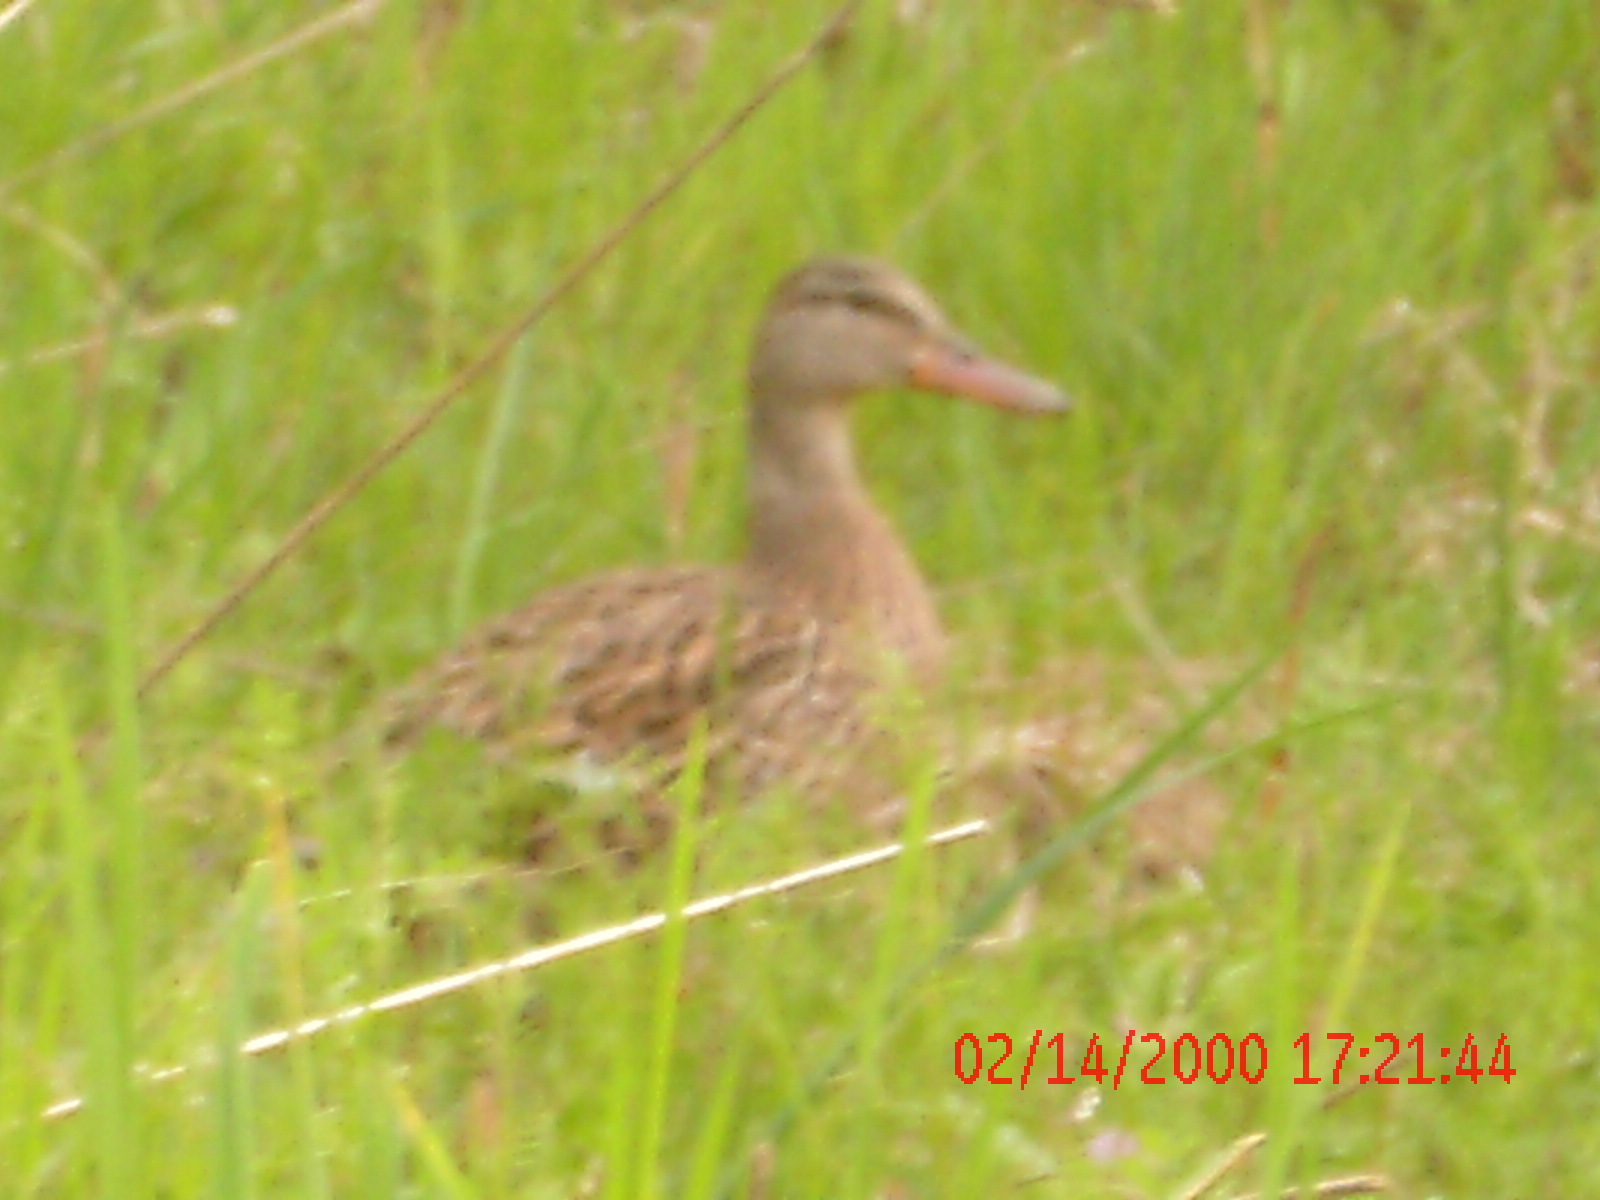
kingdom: Animalia
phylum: Chordata
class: Aves
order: Anseriformes
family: Anatidae
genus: Anas
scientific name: Anas platyrhynchos
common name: Mallard
